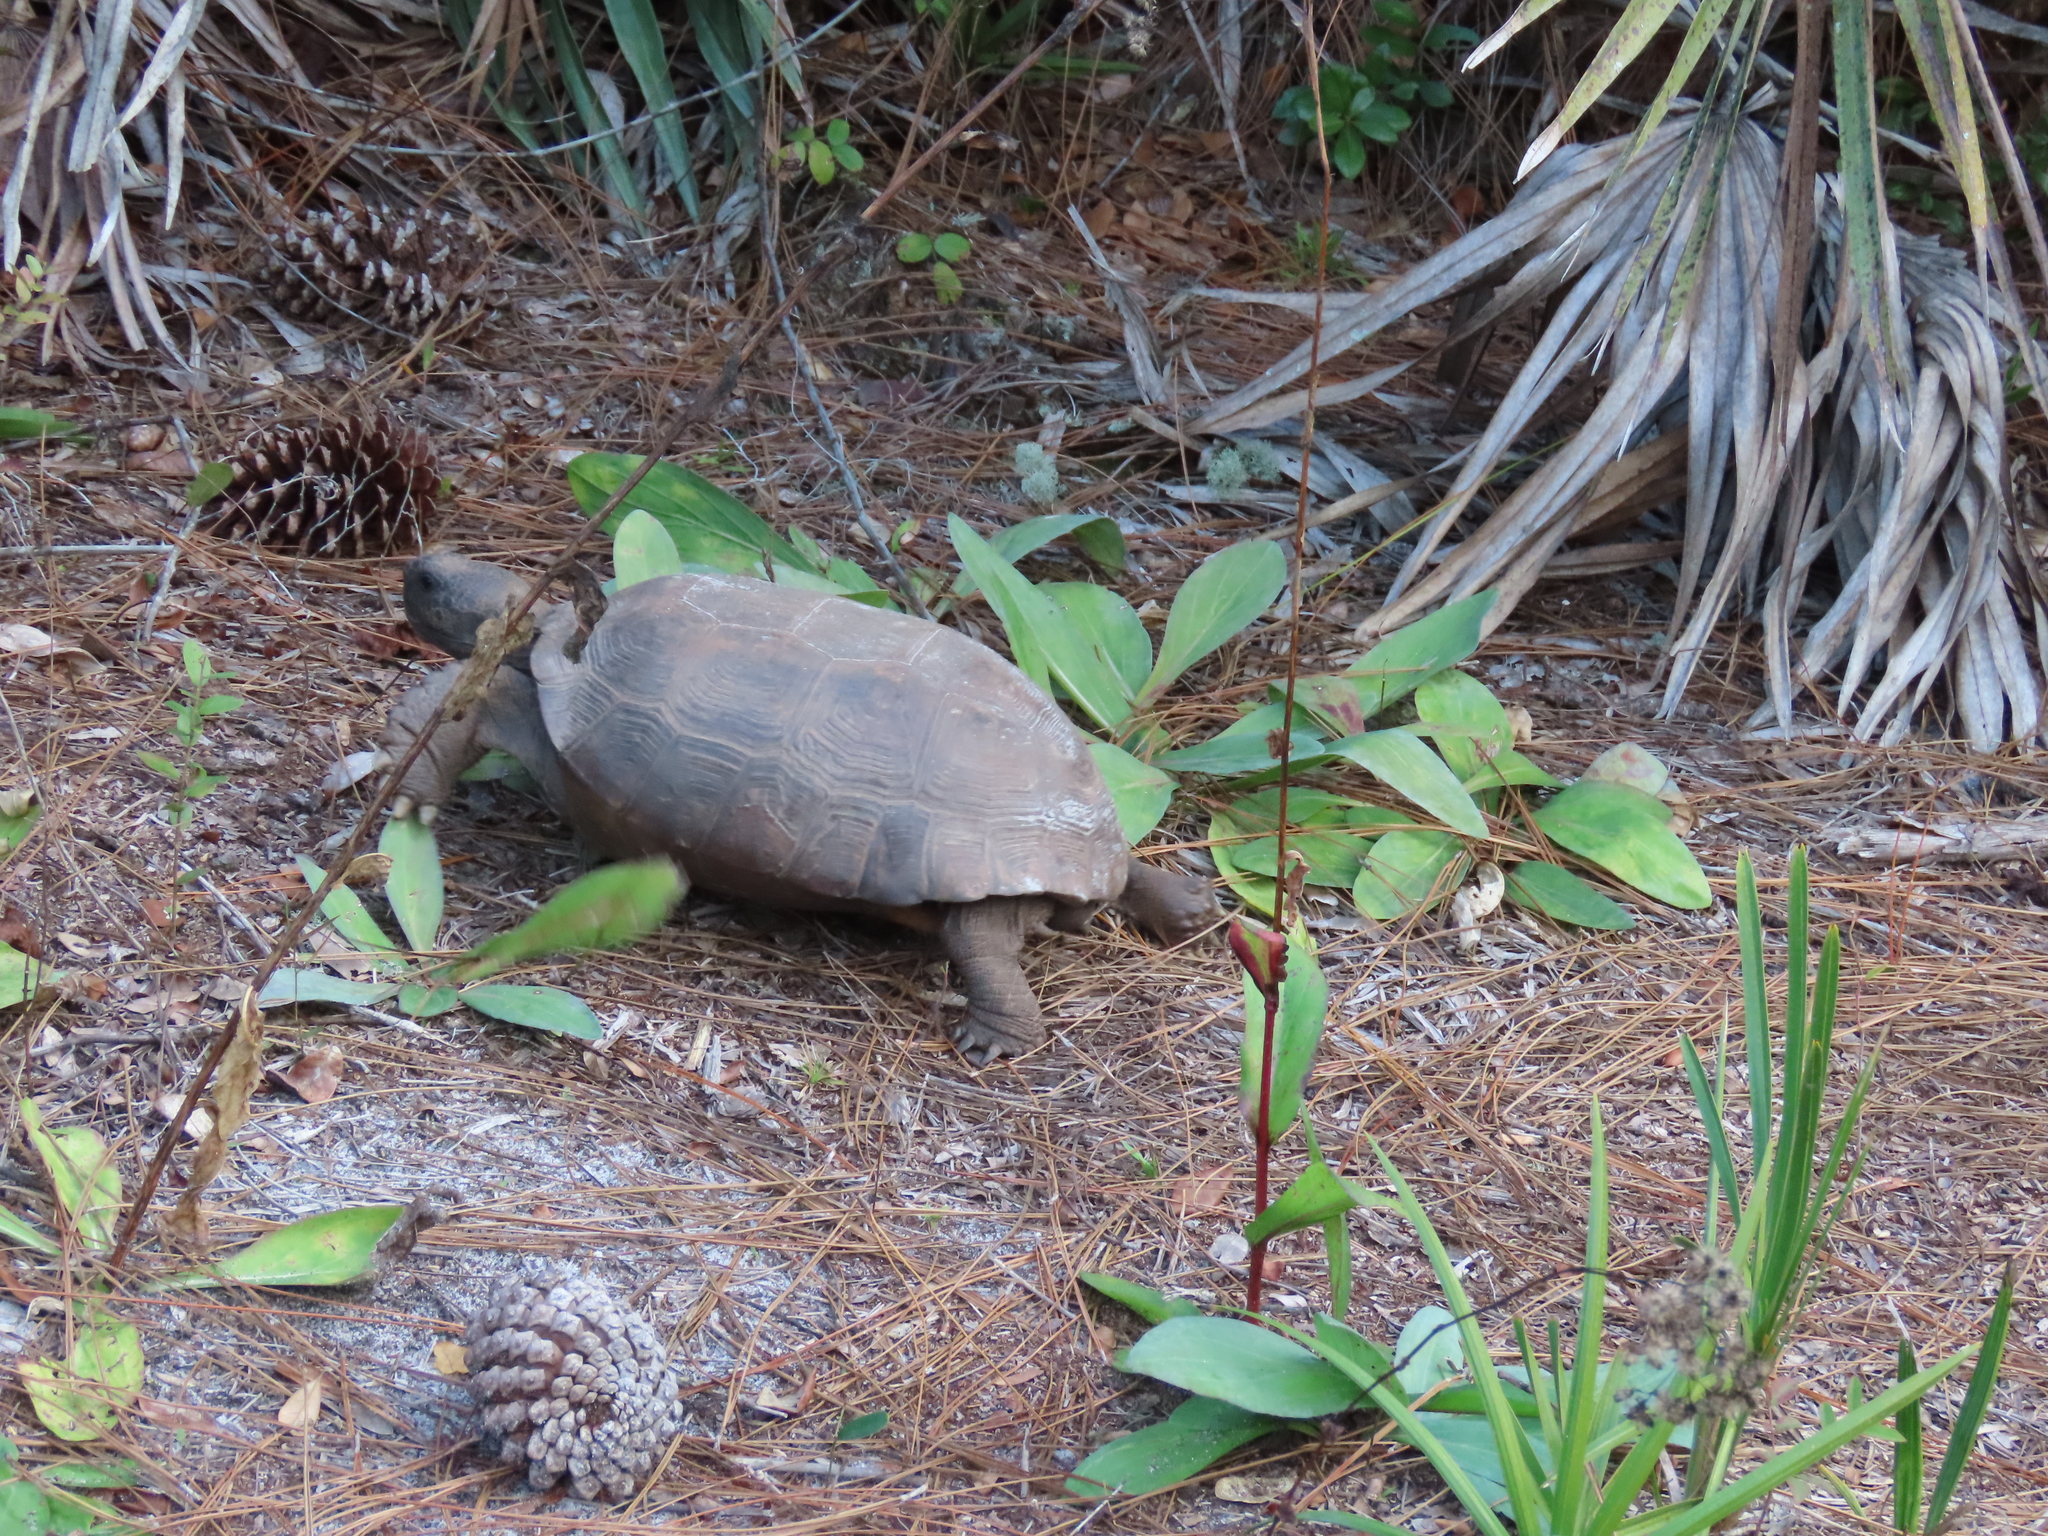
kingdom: Animalia
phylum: Chordata
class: Testudines
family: Testudinidae
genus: Gopherus
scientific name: Gopherus polyphemus
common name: Florida gopher tortoise
